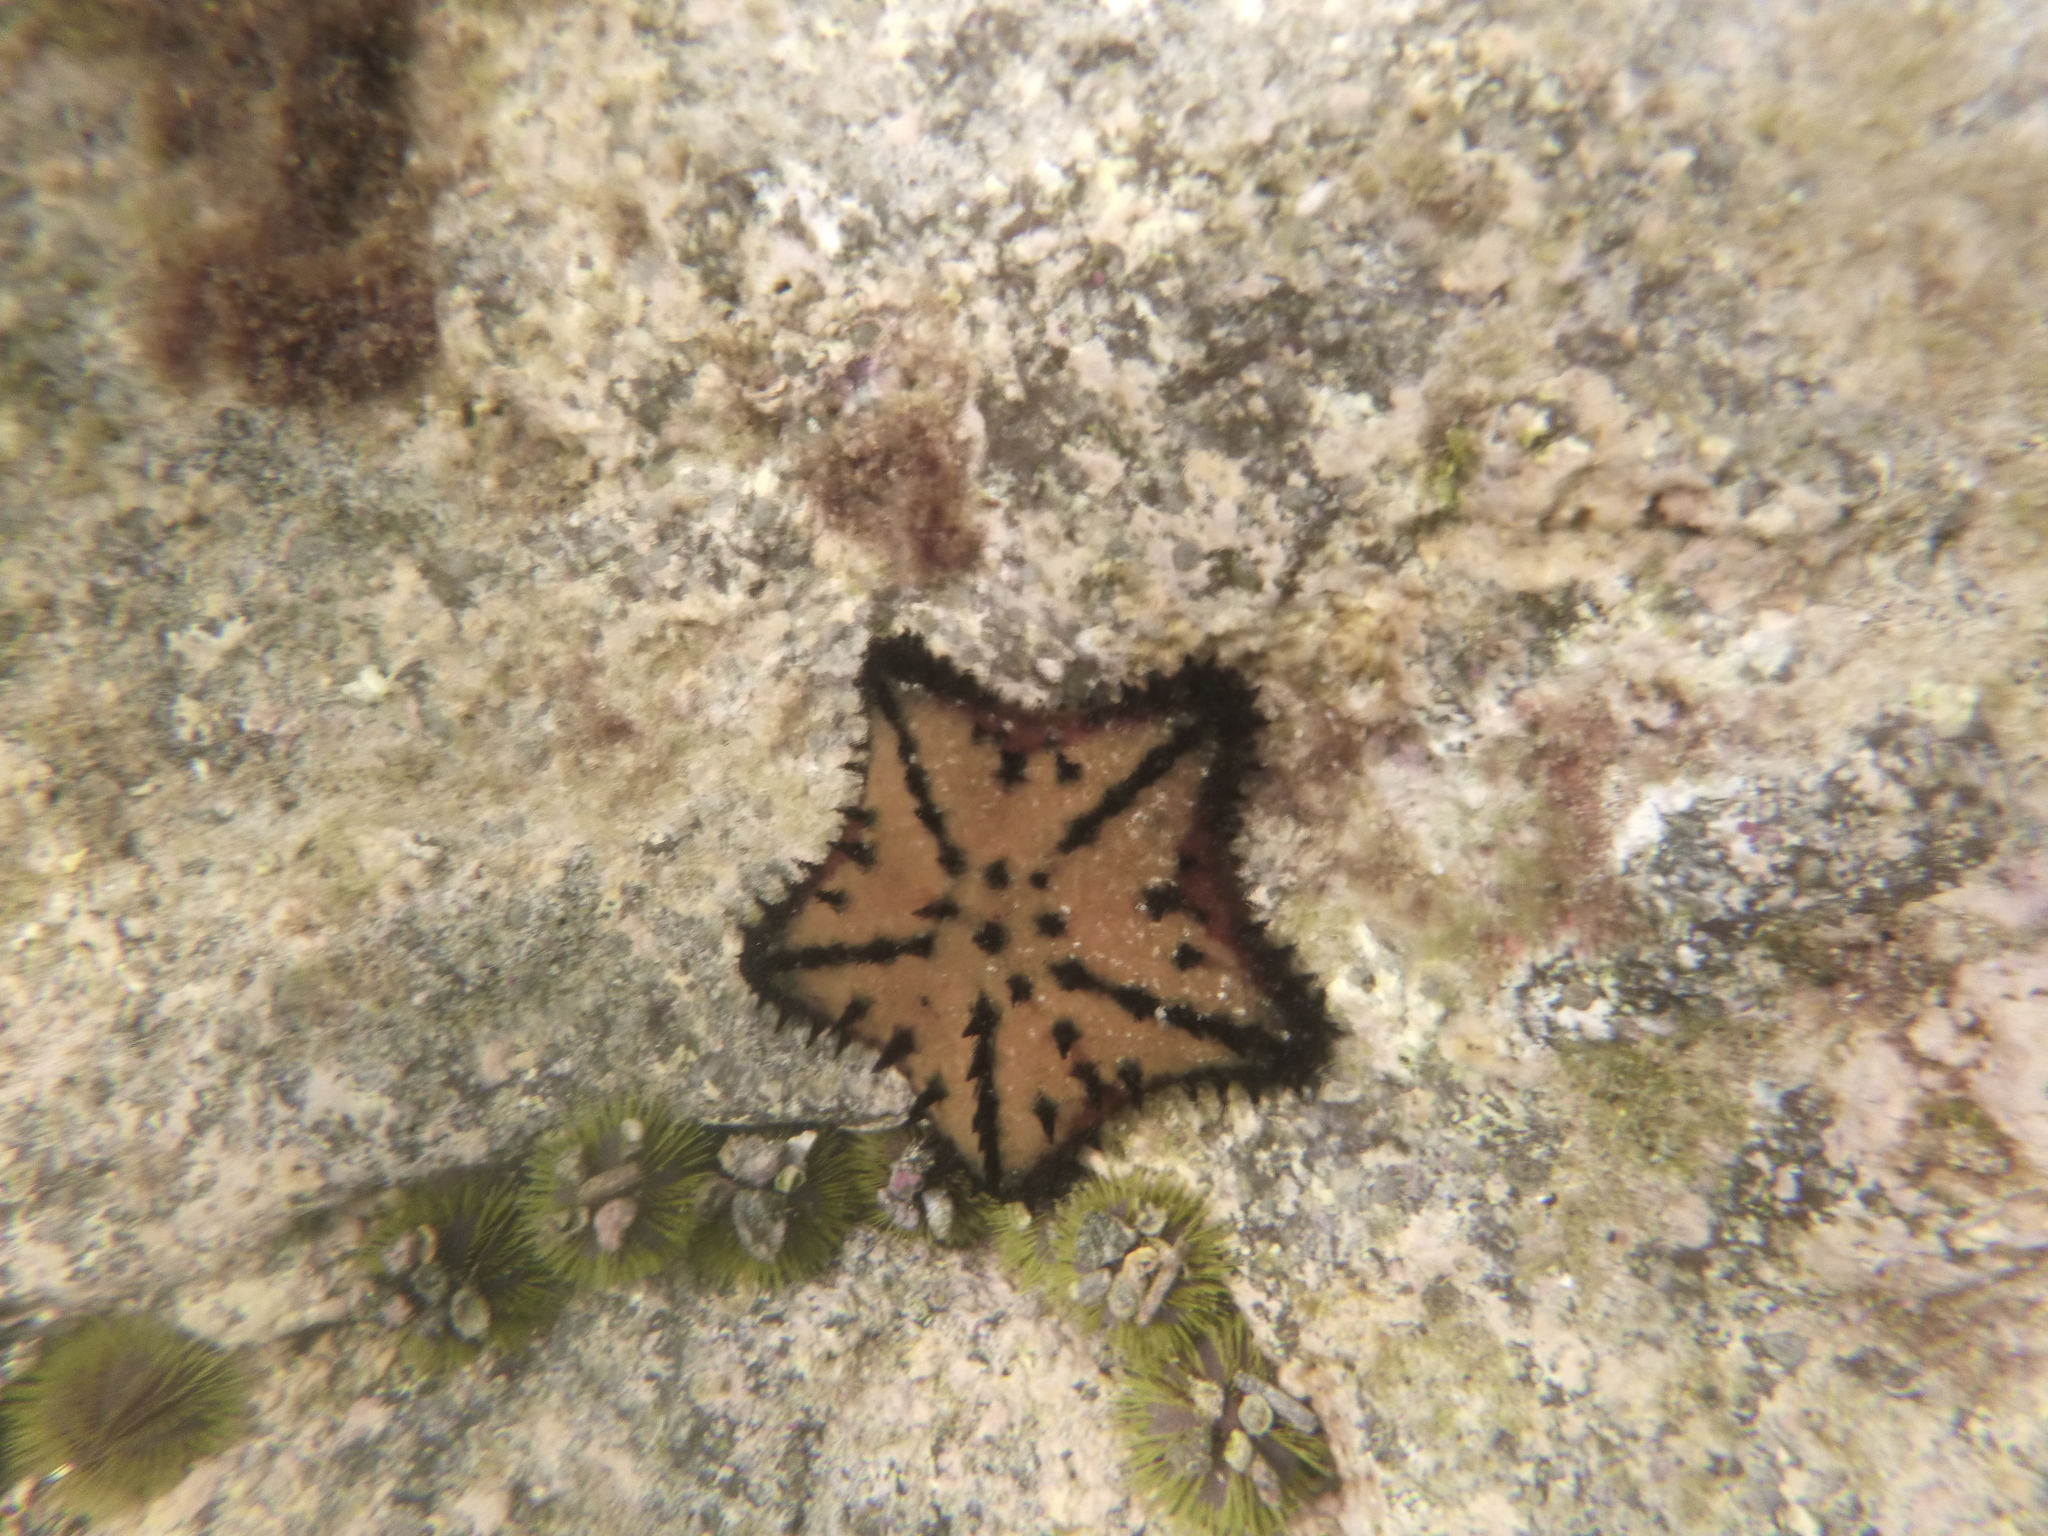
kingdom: Animalia
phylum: Echinodermata
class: Asteroidea
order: Valvatida
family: Oreasteridae
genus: Nidorellia
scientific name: Nidorellia armata
